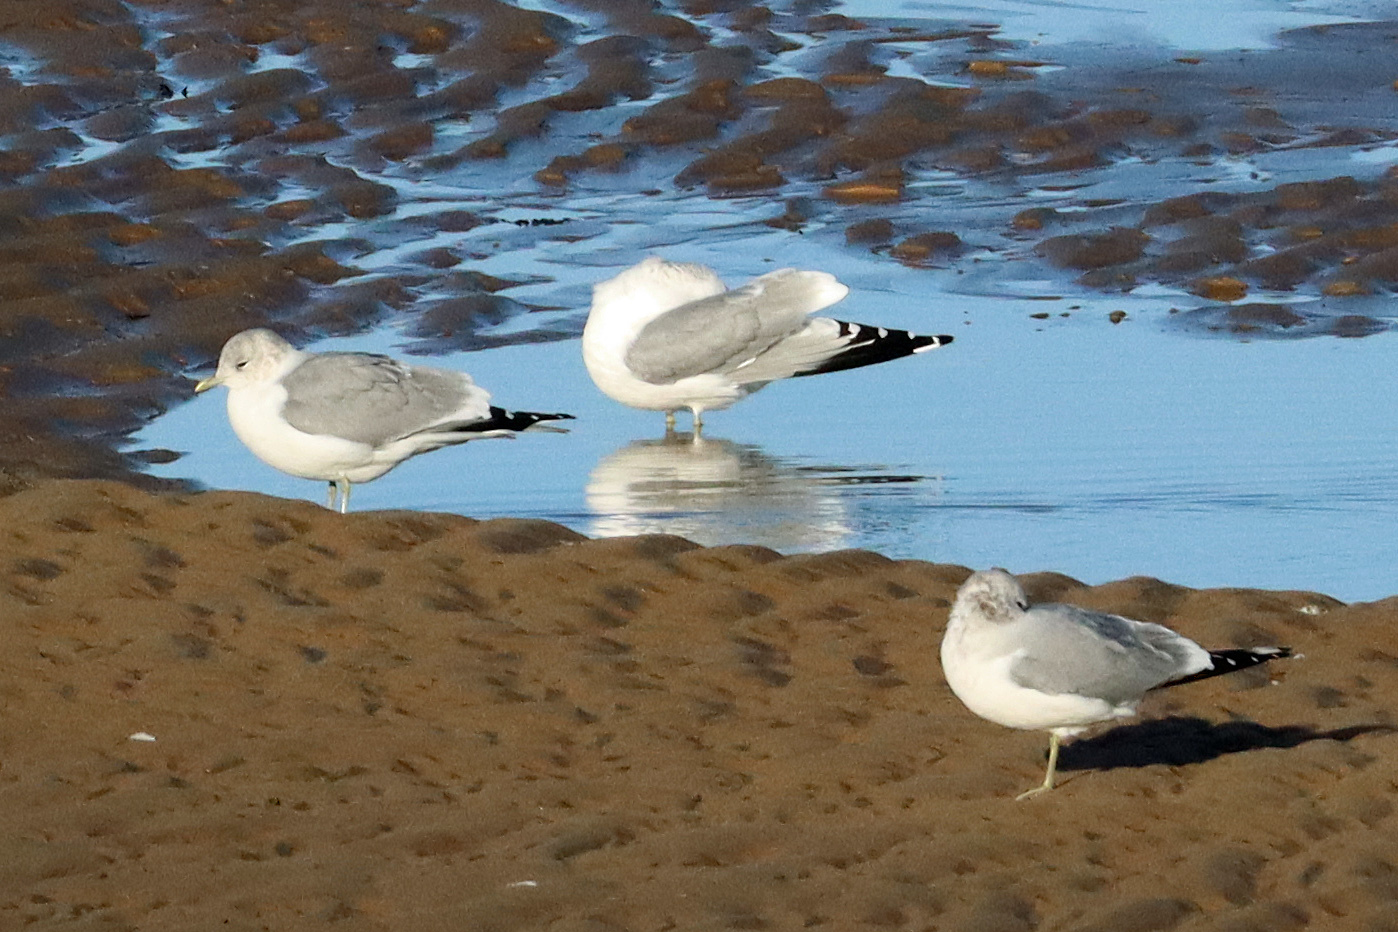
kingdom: Animalia
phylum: Chordata
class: Aves
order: Charadriiformes
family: Laridae
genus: Larus
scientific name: Larus canus
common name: Mew gull
